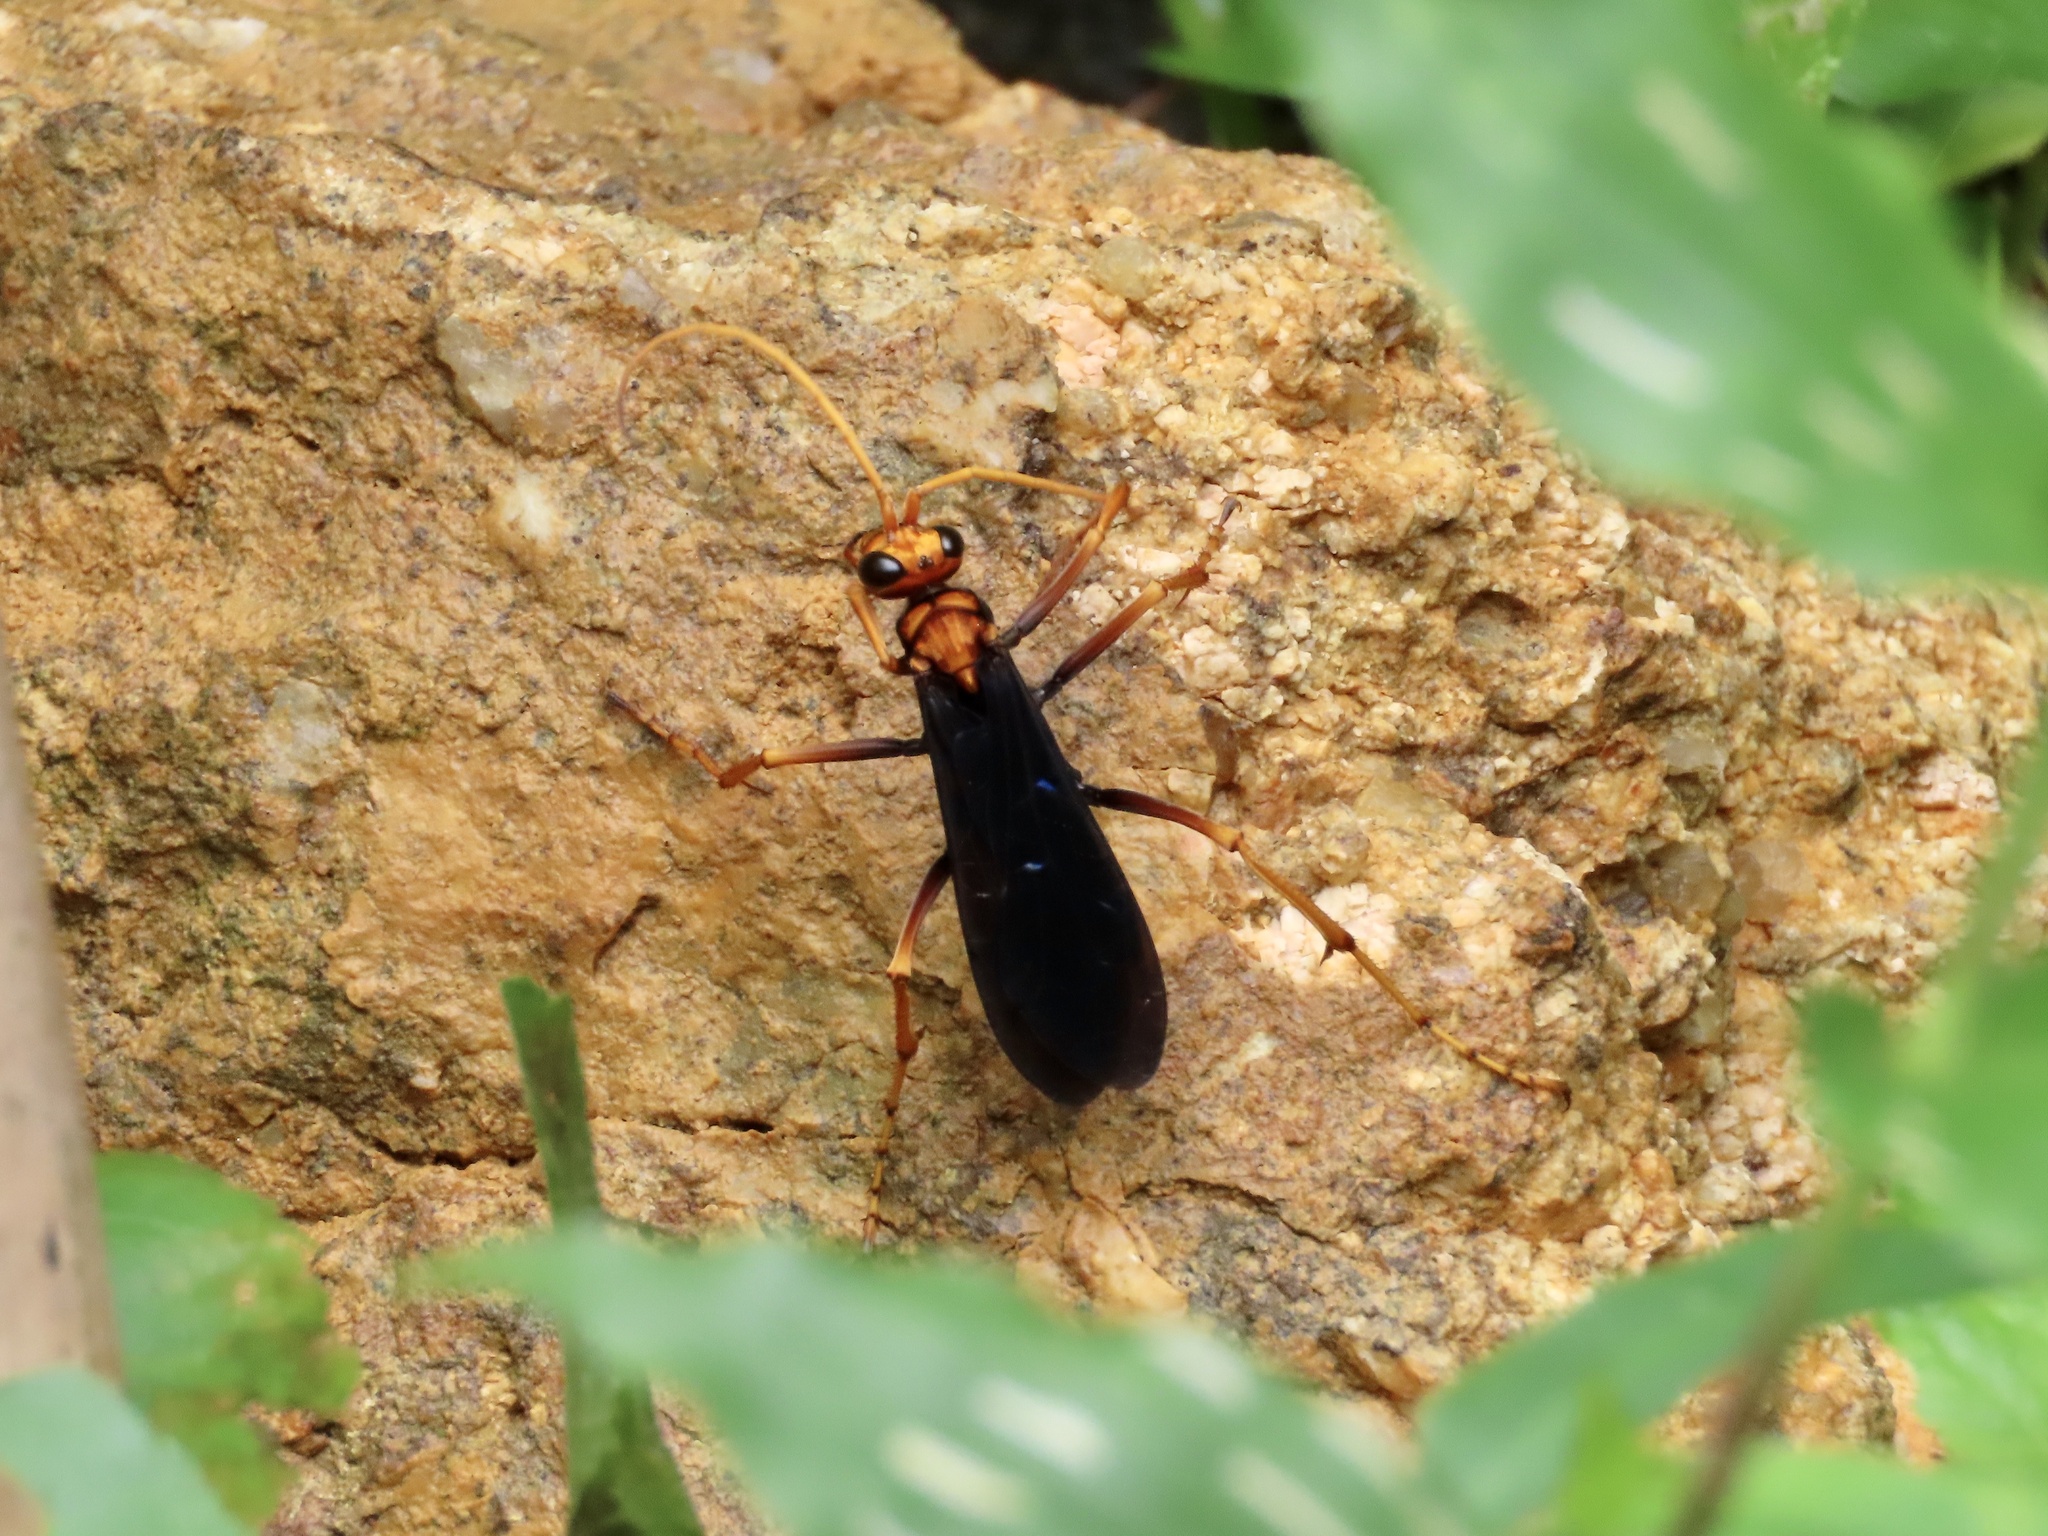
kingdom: Animalia
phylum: Arthropoda
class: Insecta
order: Hymenoptera
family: Pompilidae
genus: Cyphononyx
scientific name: Cyphononyx bipartitus
